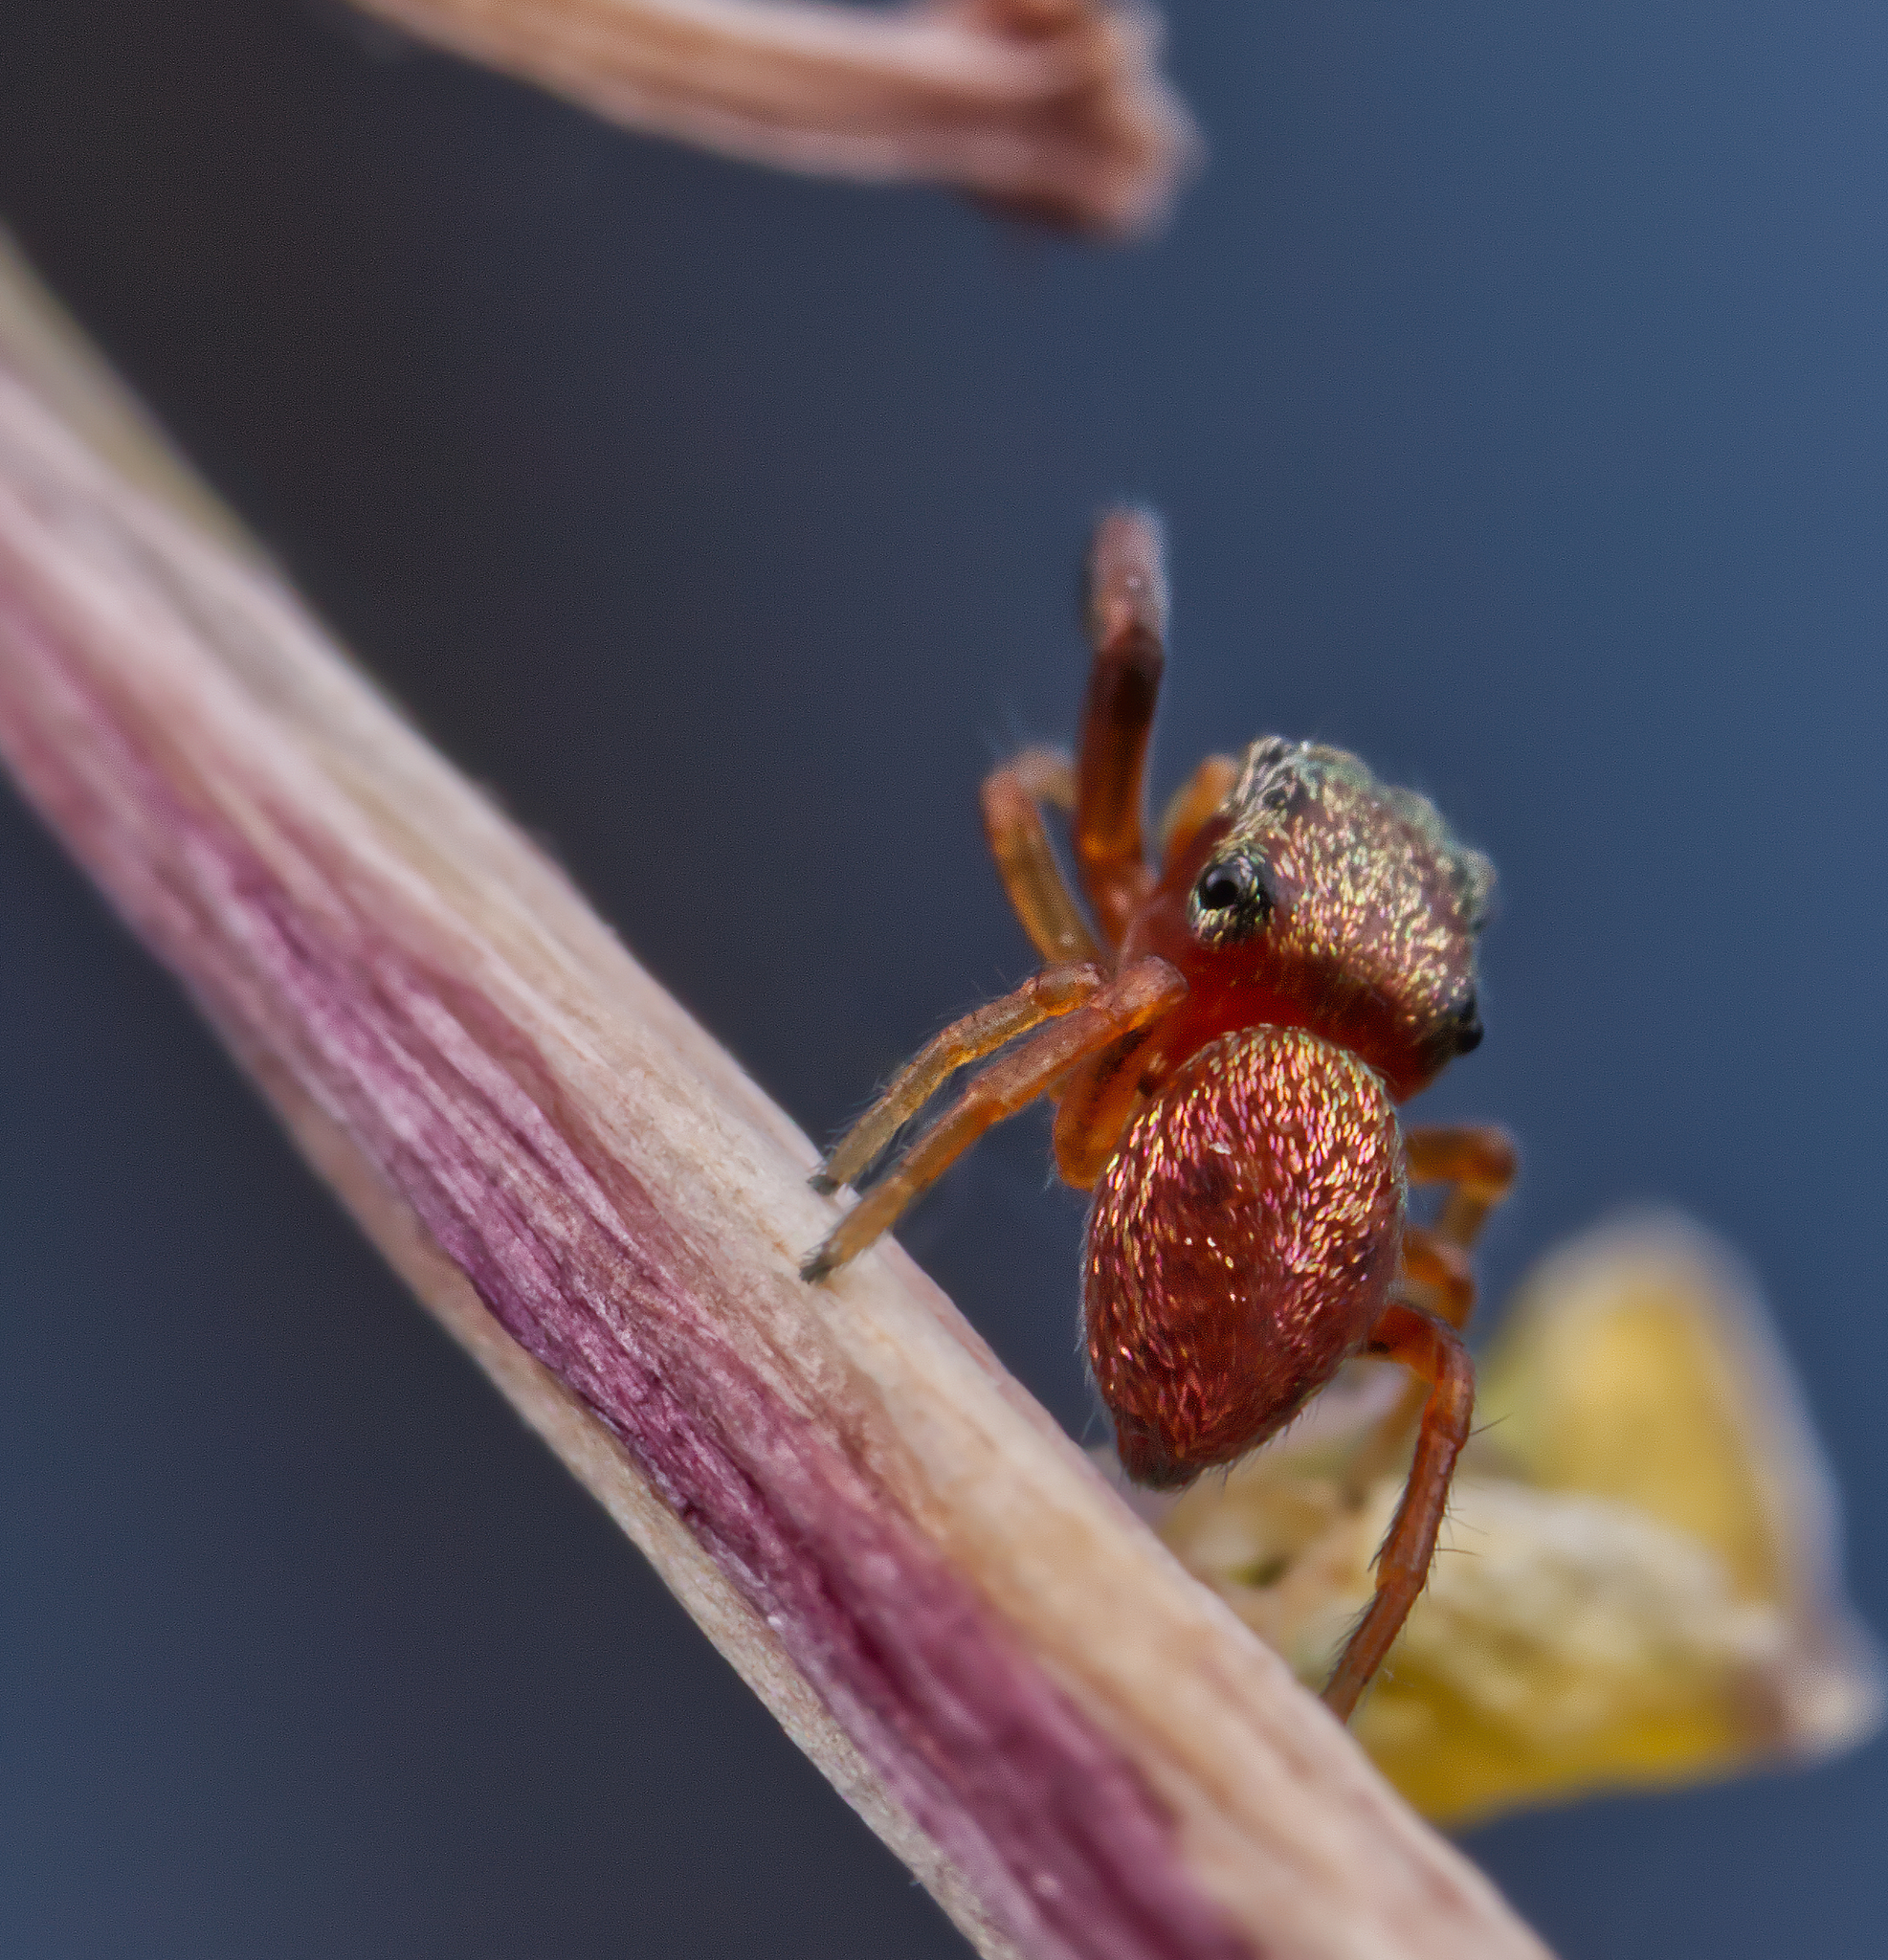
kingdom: Animalia
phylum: Arthropoda
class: Arachnida
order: Araneae
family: Salticidae
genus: Zygoballus
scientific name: Zygoballus sexpunctatus
